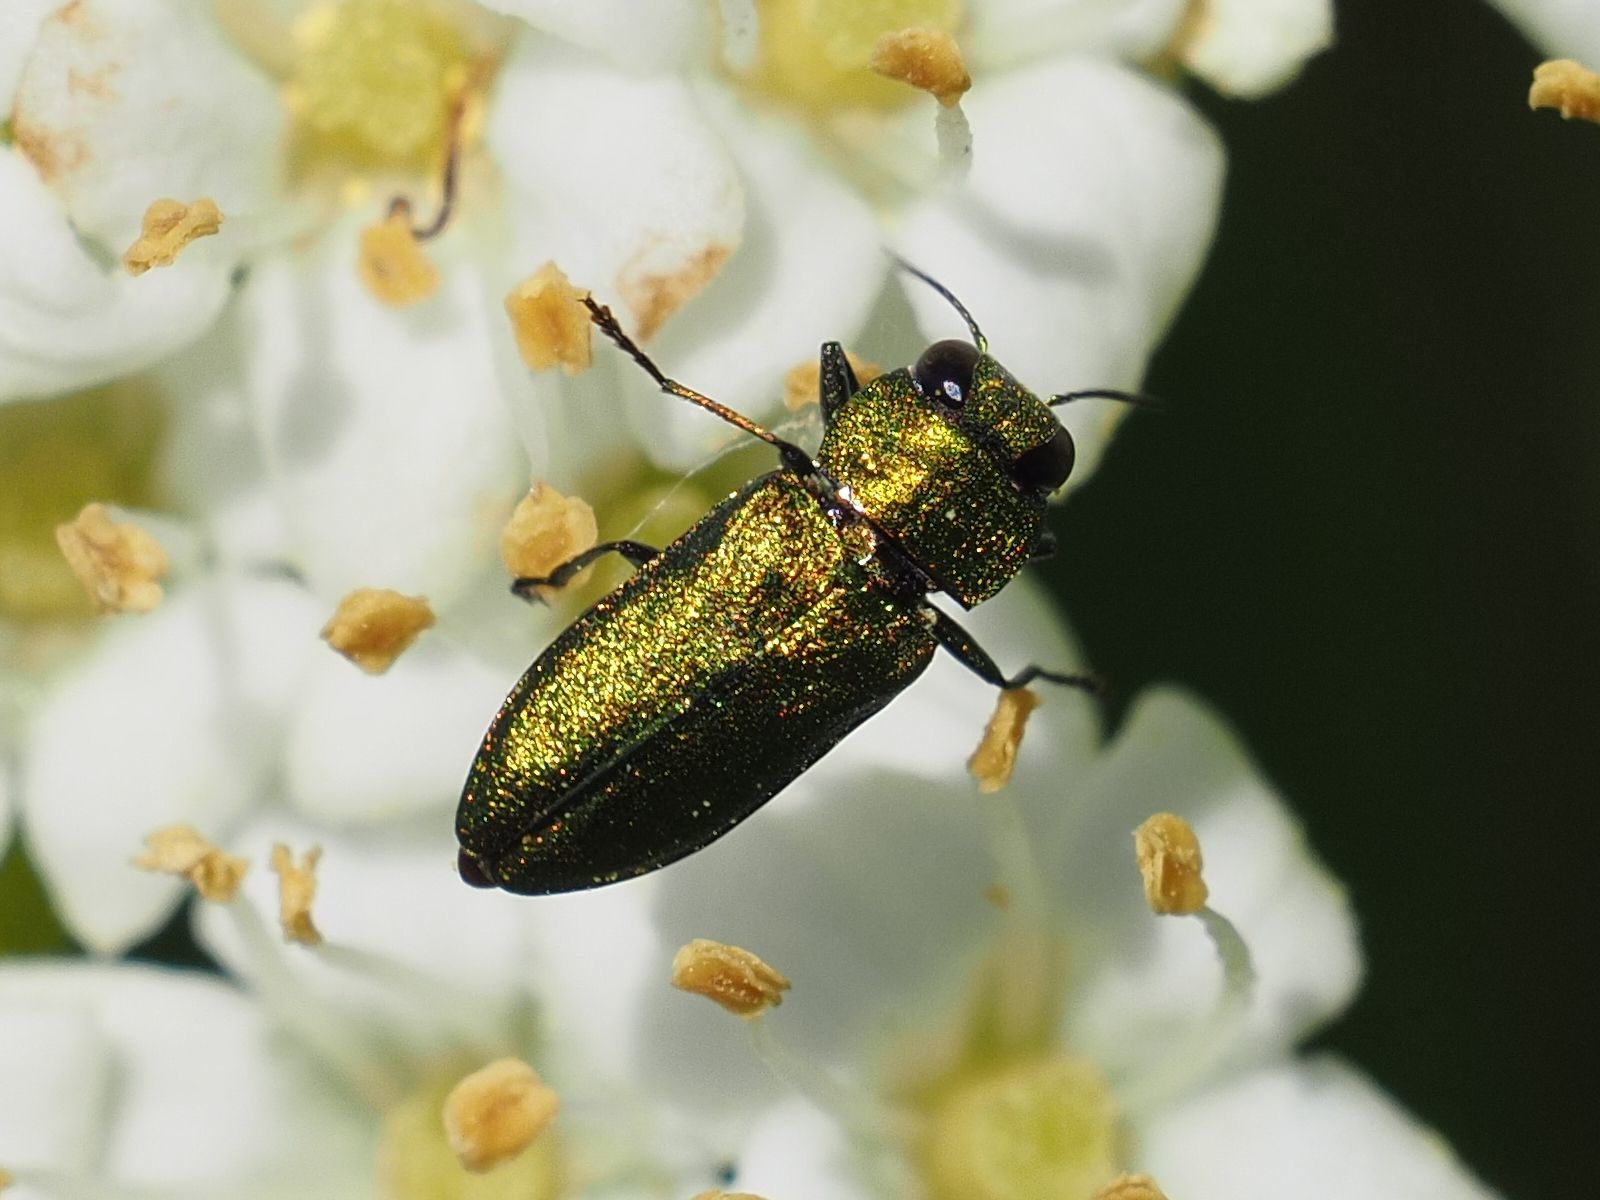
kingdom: Animalia
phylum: Arthropoda
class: Insecta
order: Coleoptera
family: Buprestidae
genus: Anthaxia
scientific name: Anthaxia nitidula
